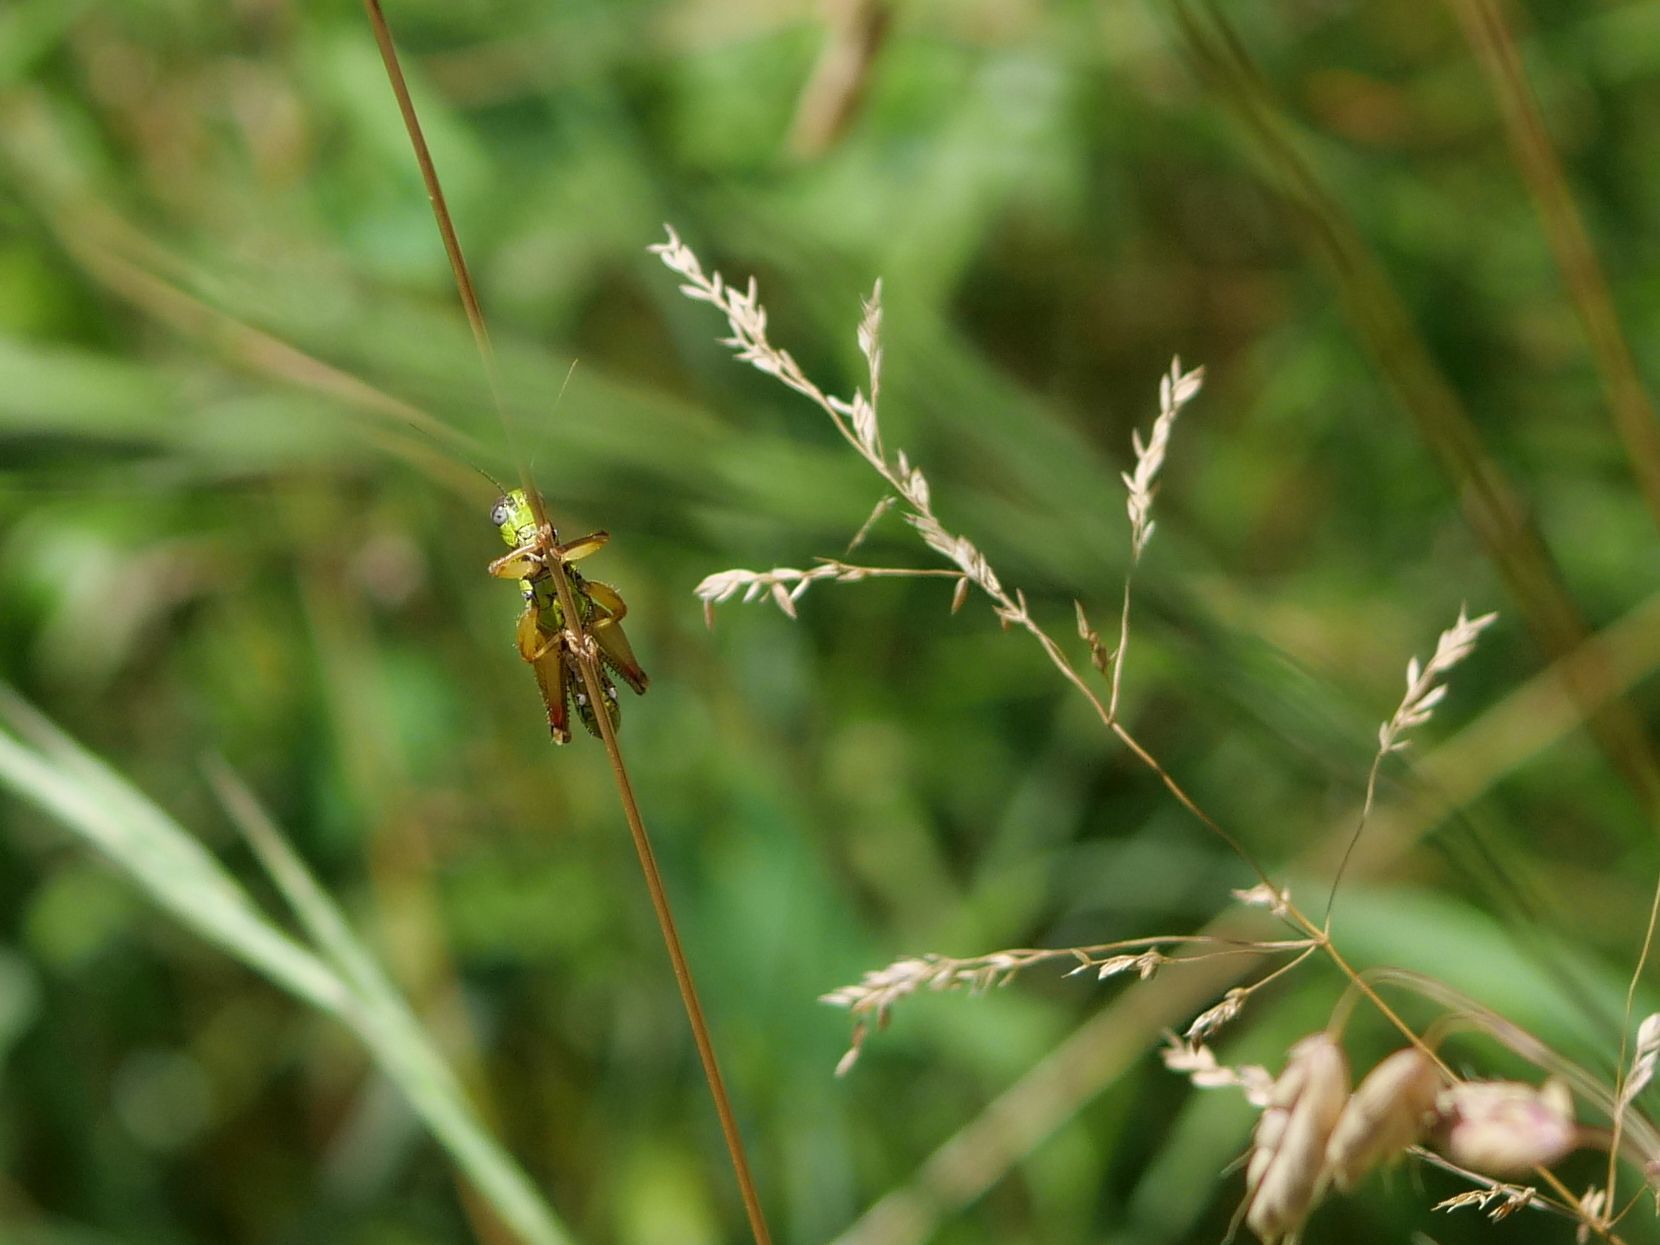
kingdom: Animalia
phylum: Arthropoda
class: Insecta
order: Orthoptera
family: Acrididae
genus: Micropodisma
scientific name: Micropodisma salamandra
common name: Foothill mountain grasshopper
